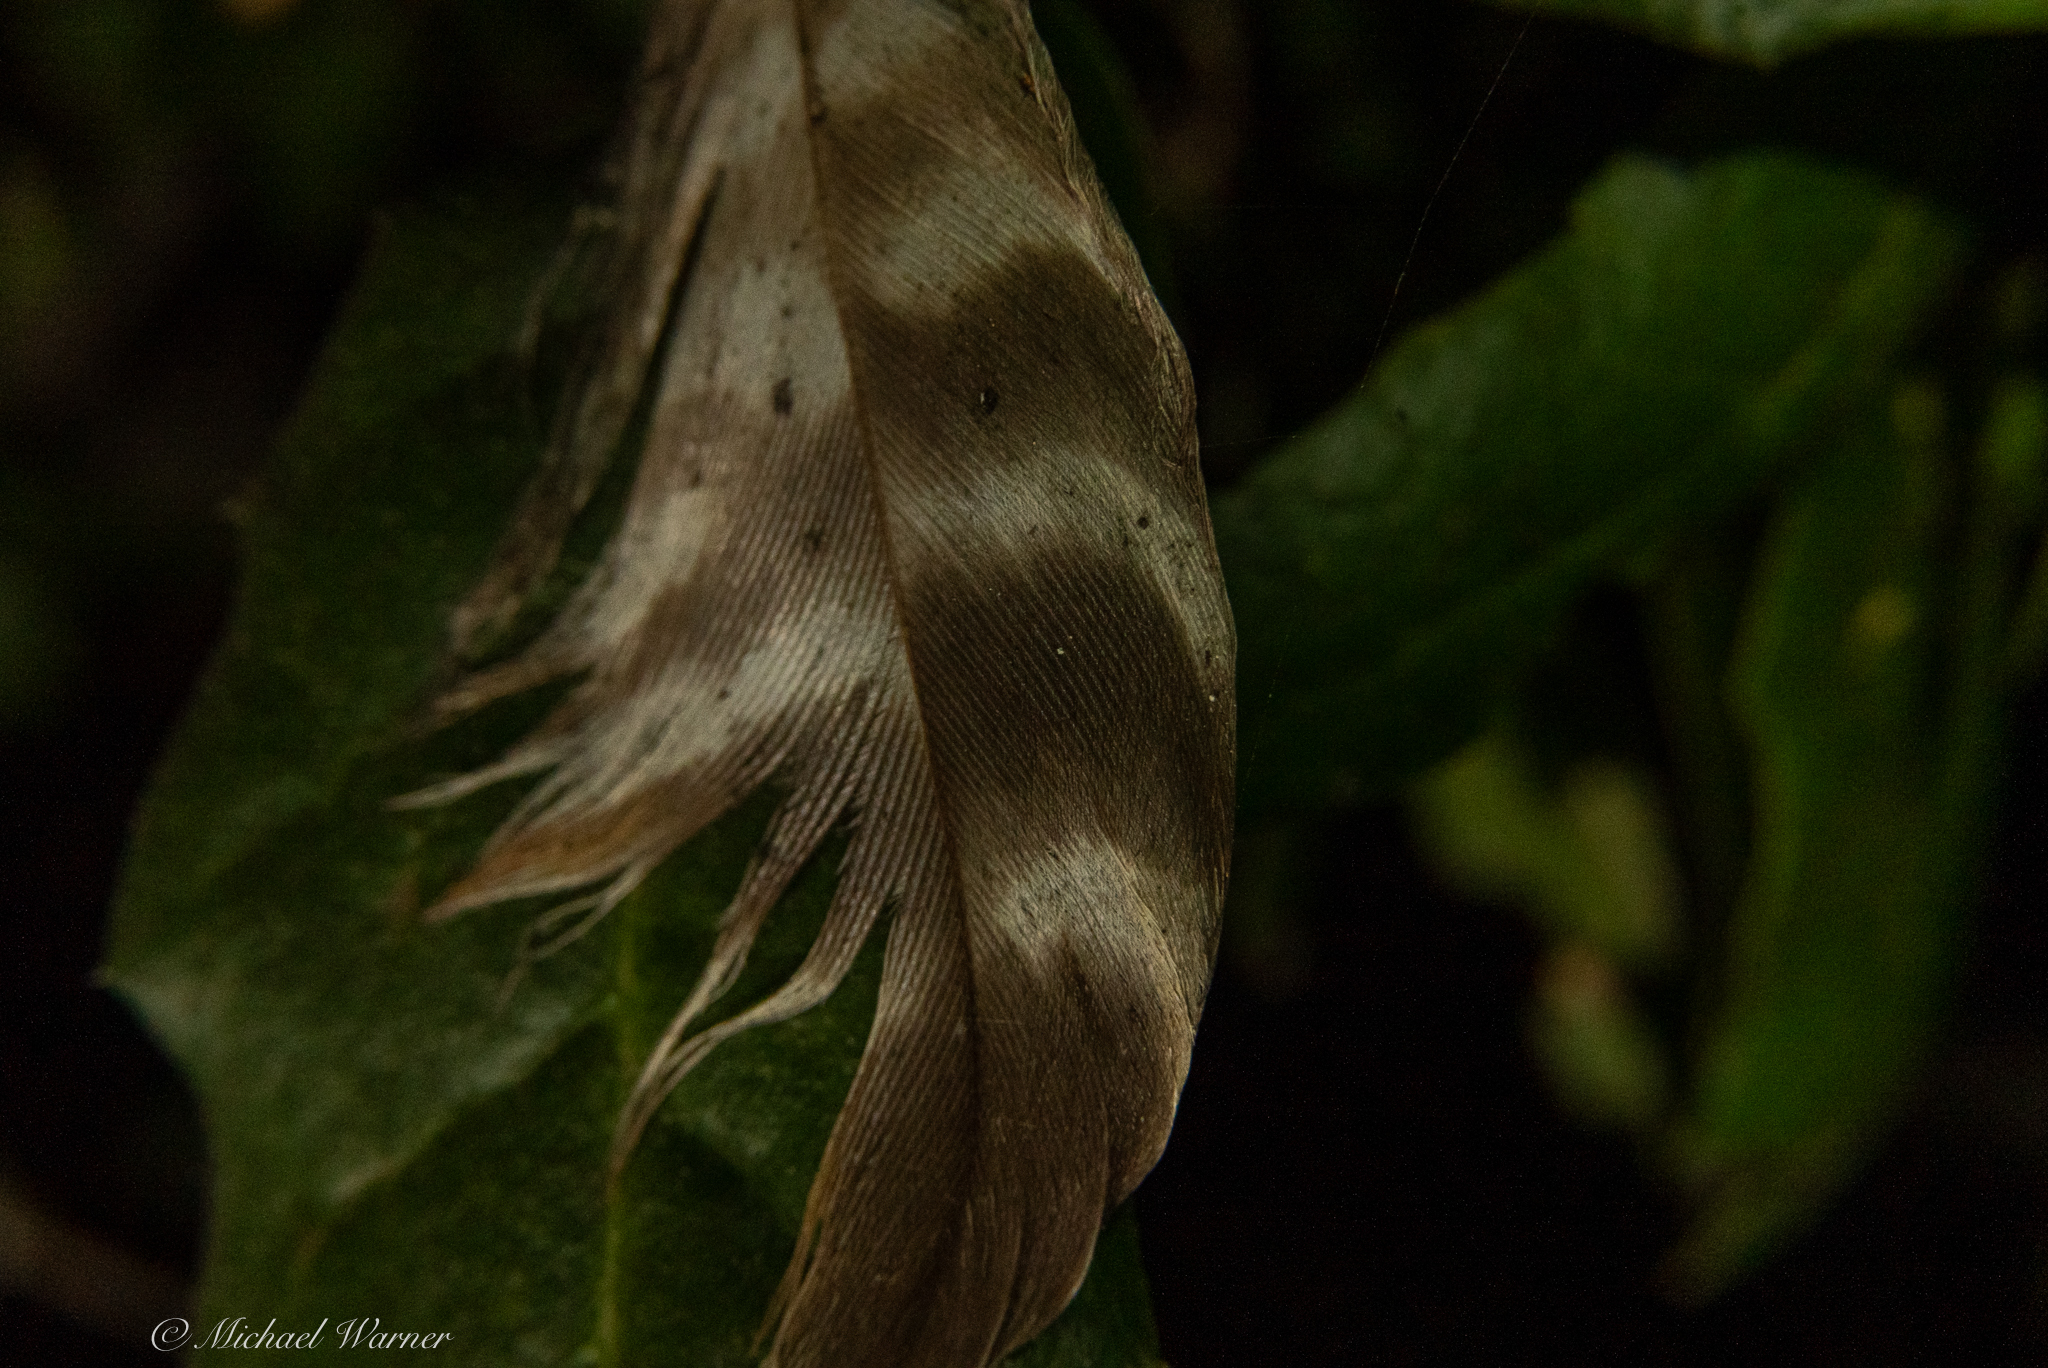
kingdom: Animalia
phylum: Chordata
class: Aves
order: Accipitriformes
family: Accipitridae
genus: Buteo
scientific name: Buteo lineatus
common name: Red-shouldered hawk
